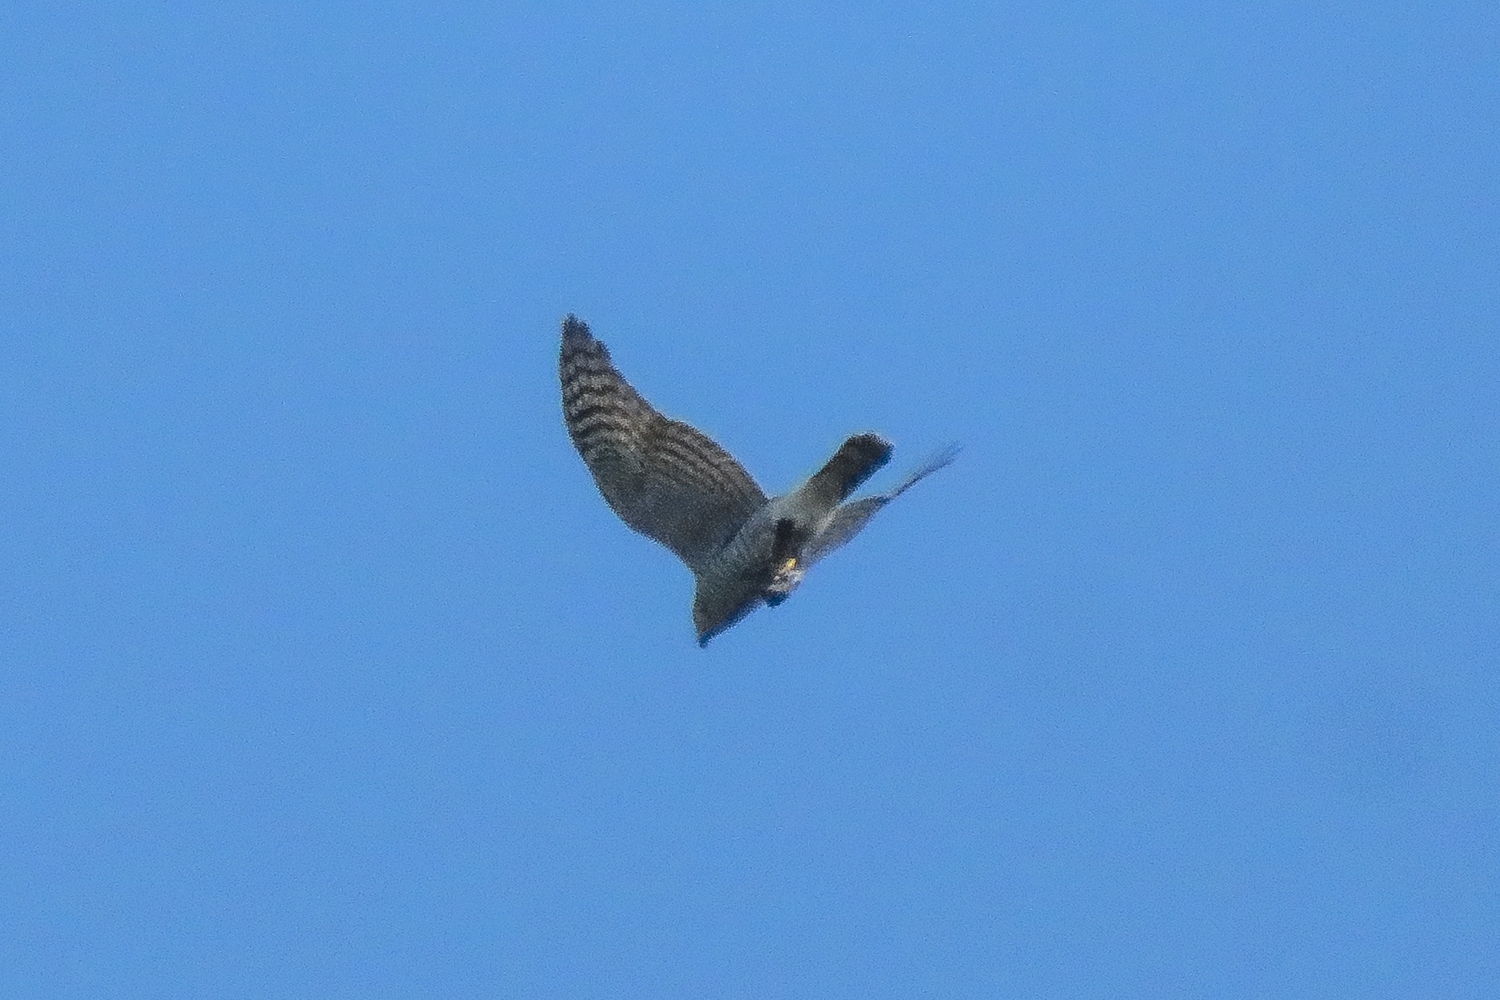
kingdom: Animalia
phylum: Chordata
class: Aves
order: Accipitriformes
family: Accipitridae
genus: Accipiter
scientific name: Accipiter nisus
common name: Eurasian sparrowhawk
